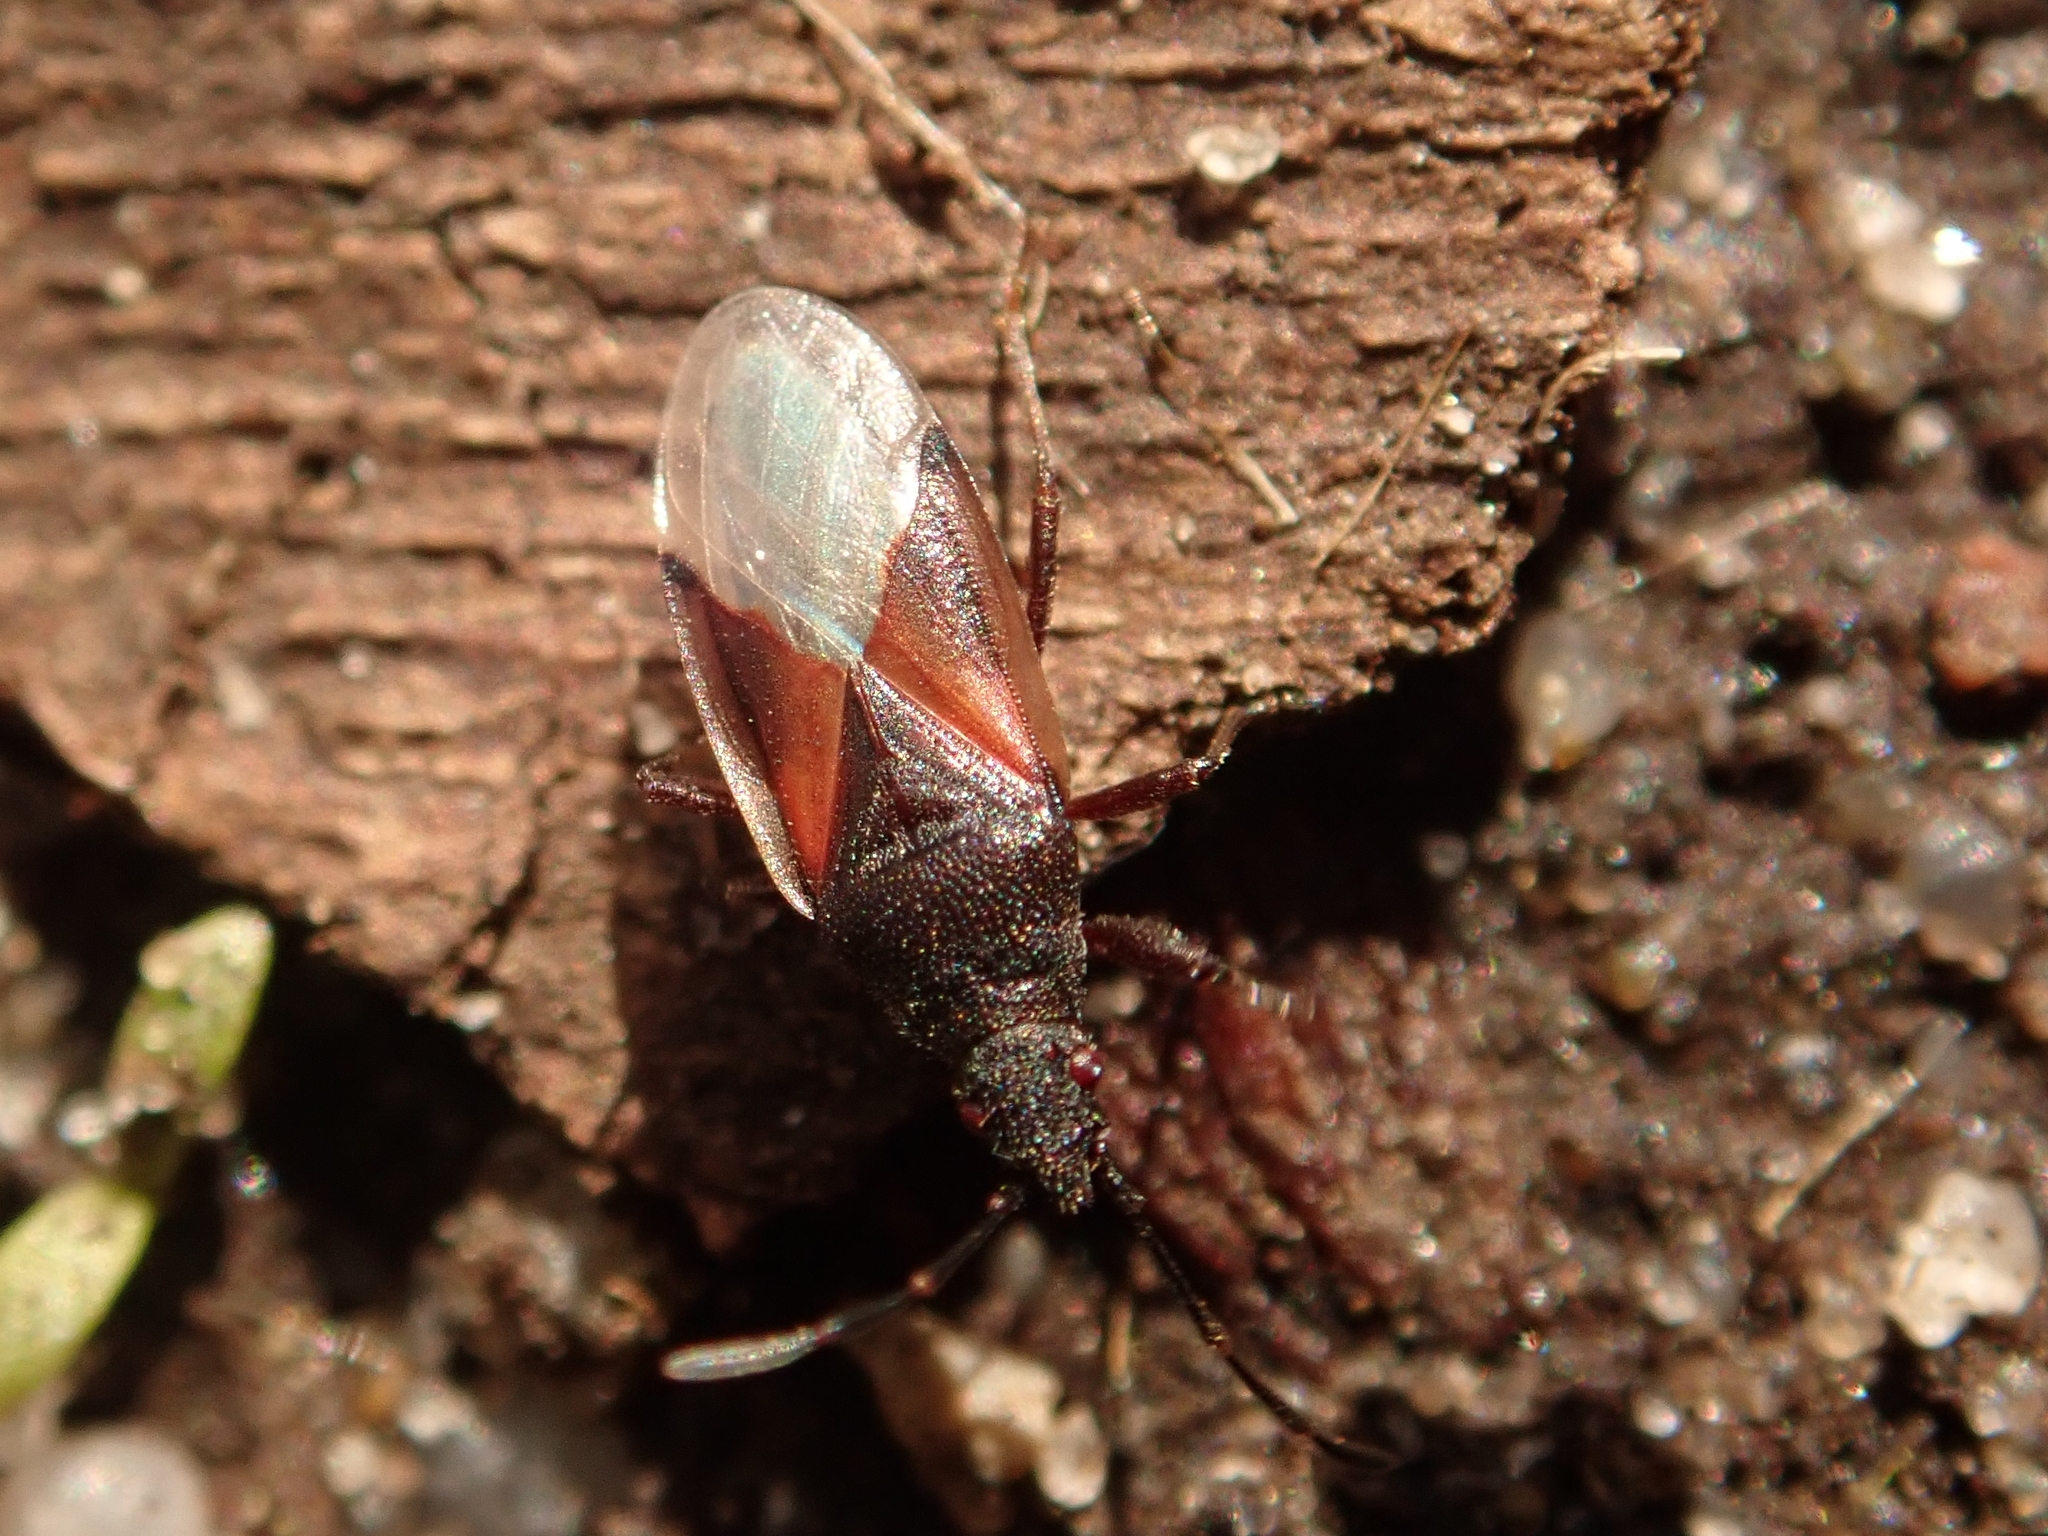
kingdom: Animalia
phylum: Arthropoda
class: Insecta
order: Hemiptera
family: Oxycarenidae
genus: Oxycarenus
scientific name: Oxycarenus lavaterae
